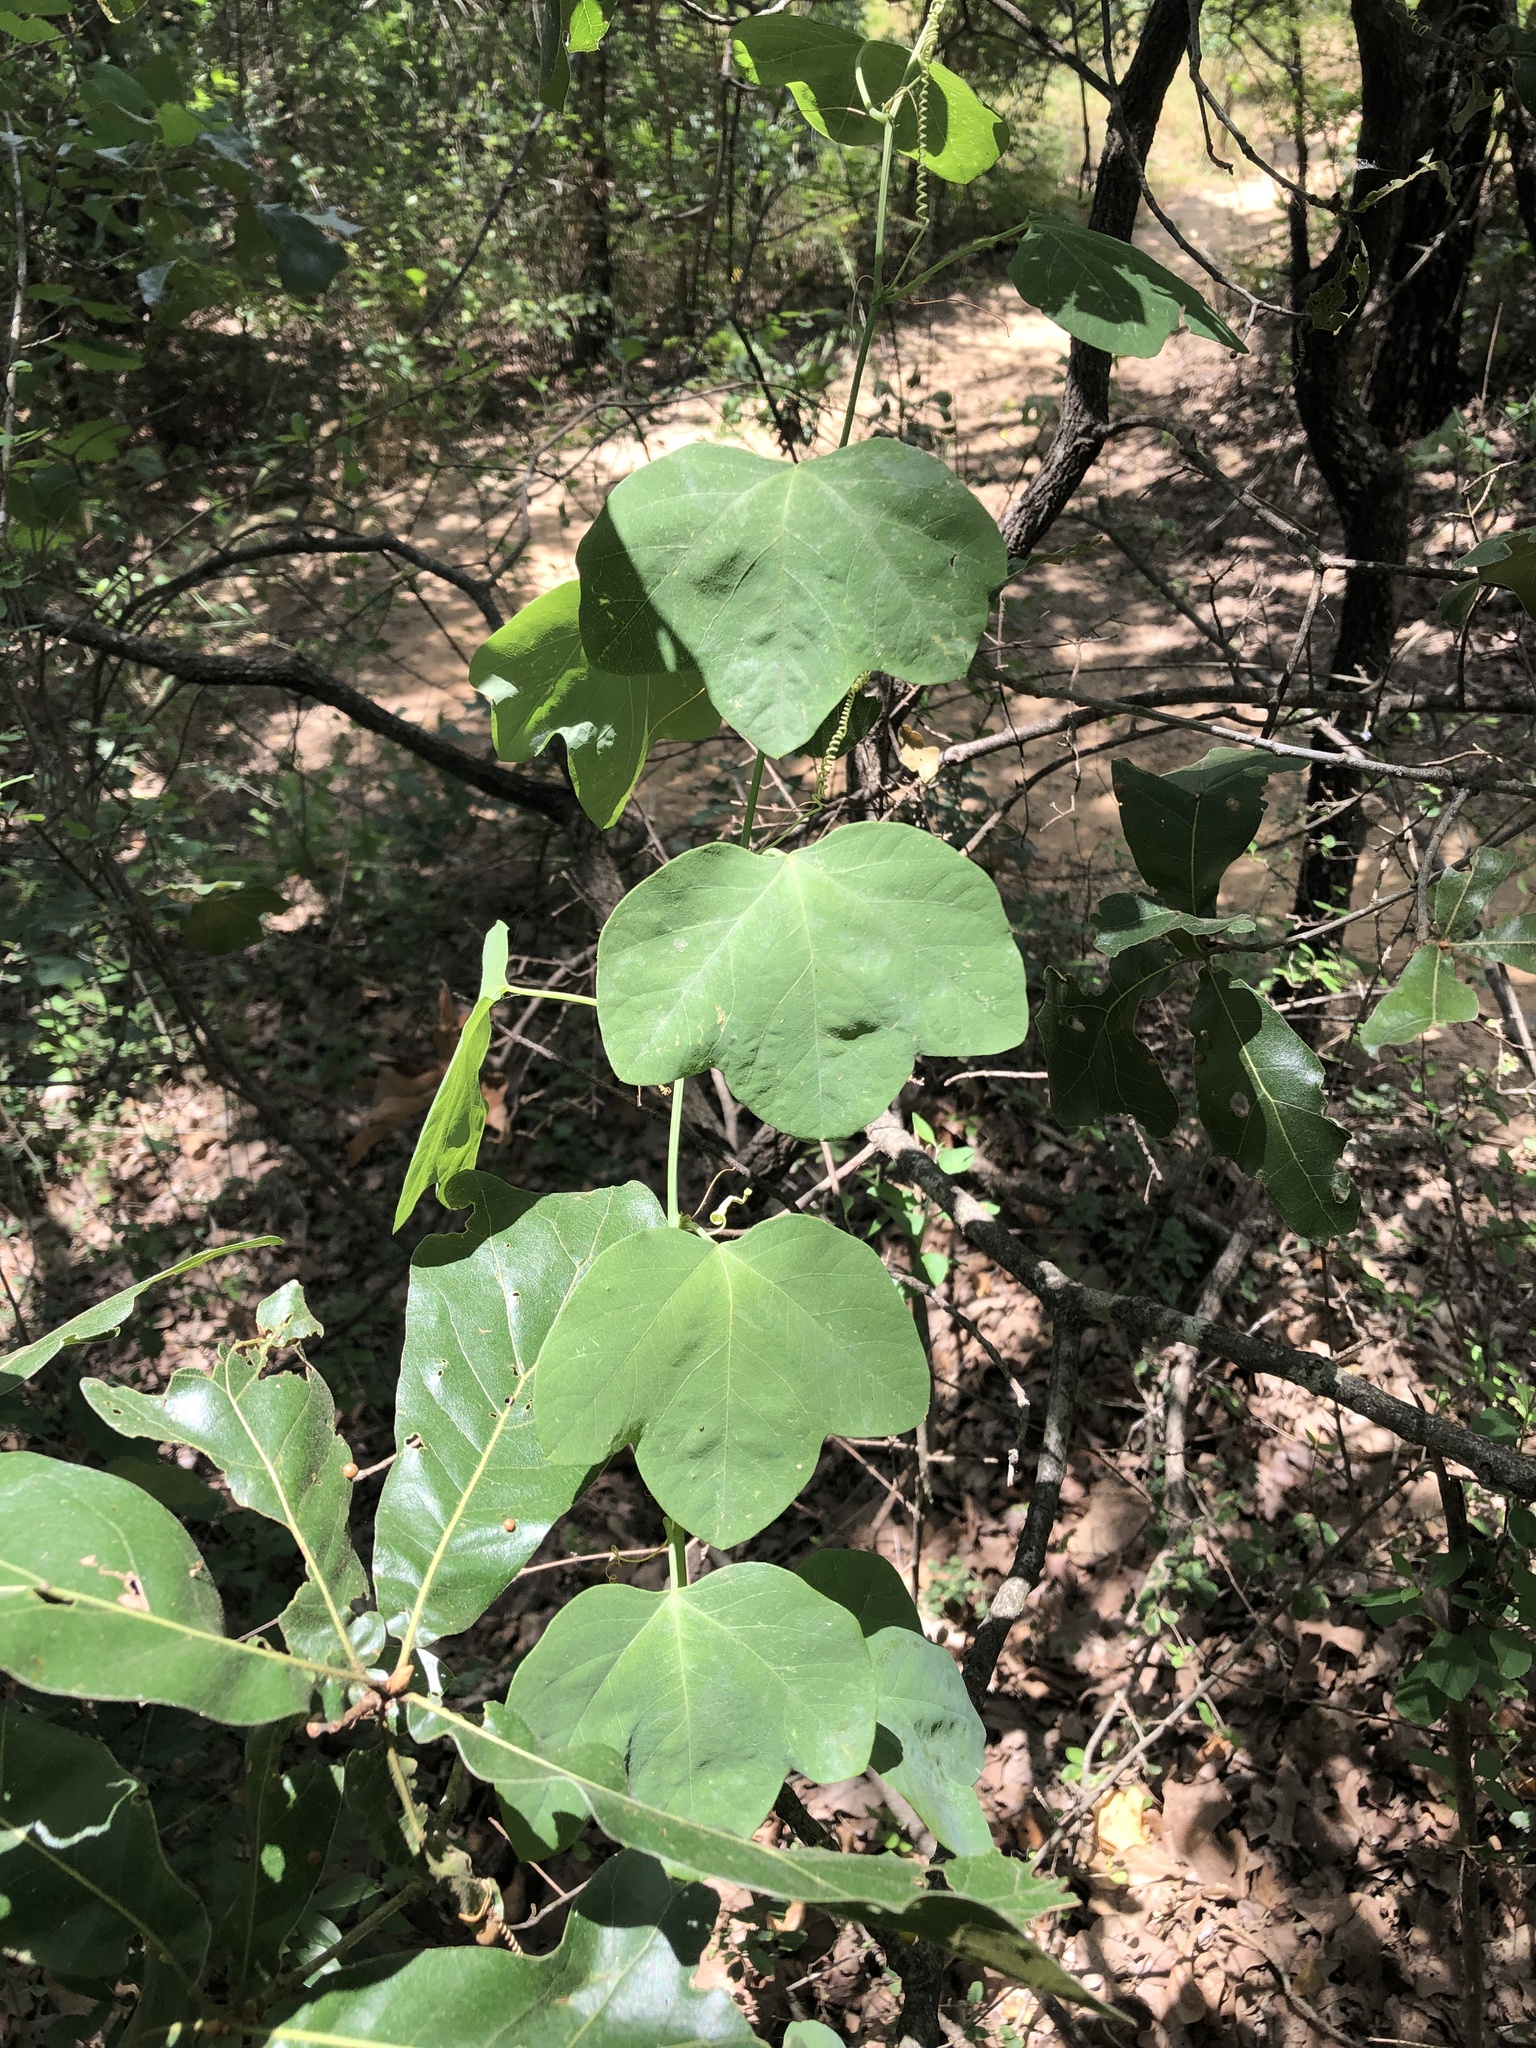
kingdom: Plantae
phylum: Tracheophyta
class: Magnoliopsida
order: Malpighiales
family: Passifloraceae
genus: Passiflora
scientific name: Passiflora lutea
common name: Yellow passionflower
